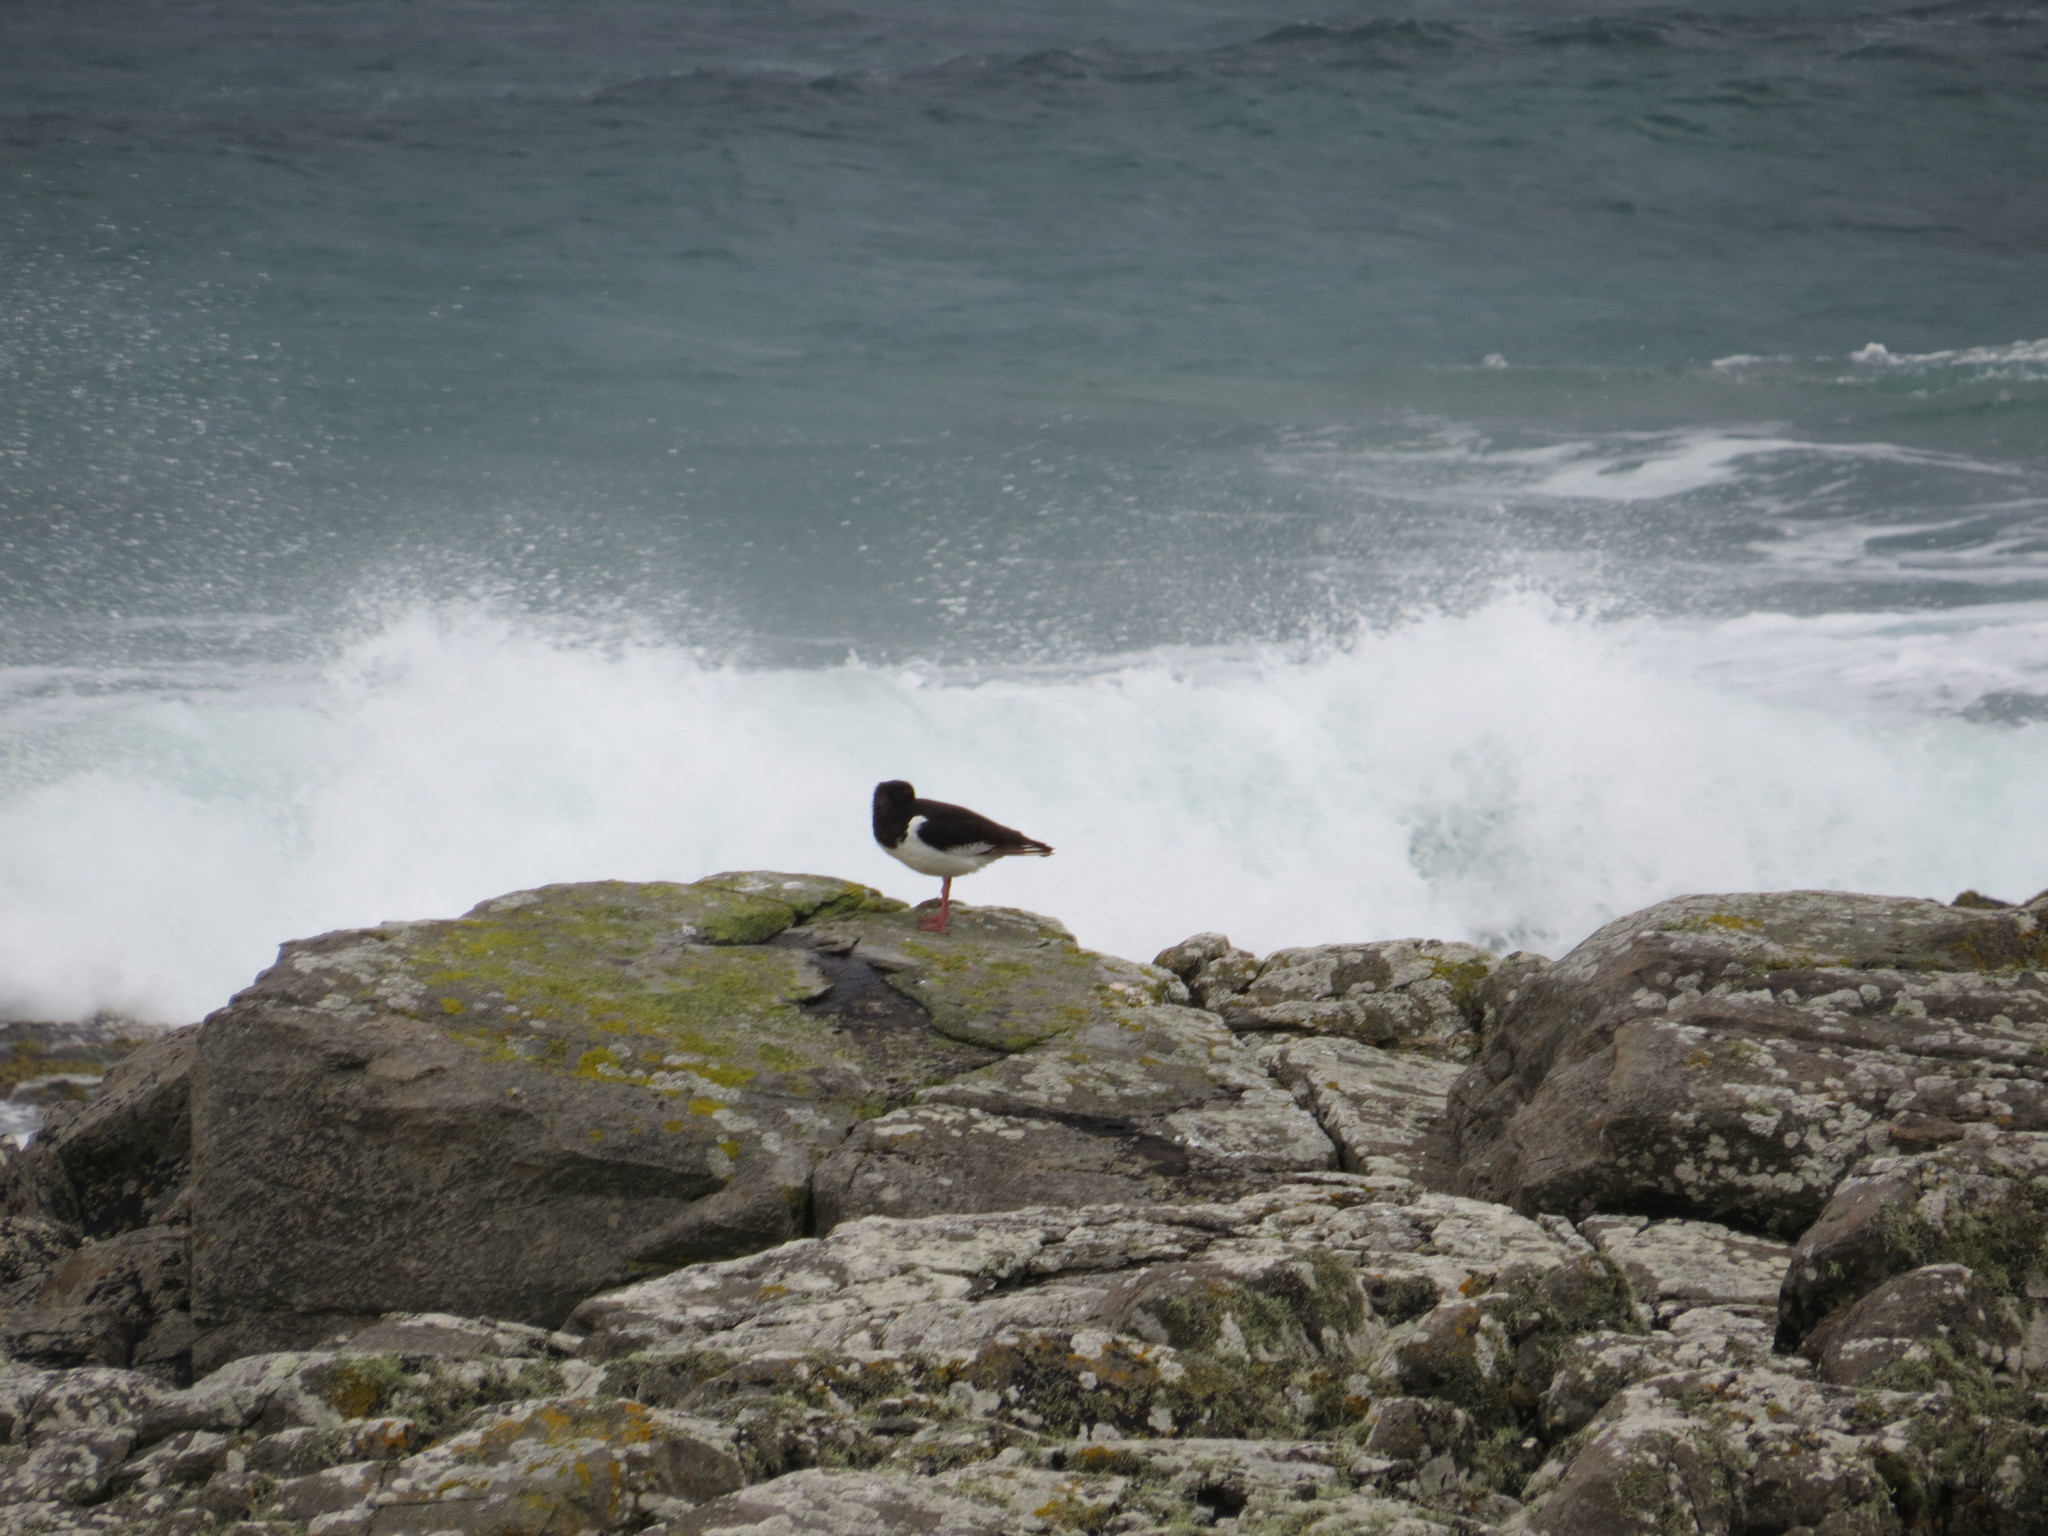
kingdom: Animalia
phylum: Chordata
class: Aves
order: Charadriiformes
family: Haematopodidae
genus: Haematopus
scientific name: Haematopus ostralegus
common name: Eurasian oystercatcher
